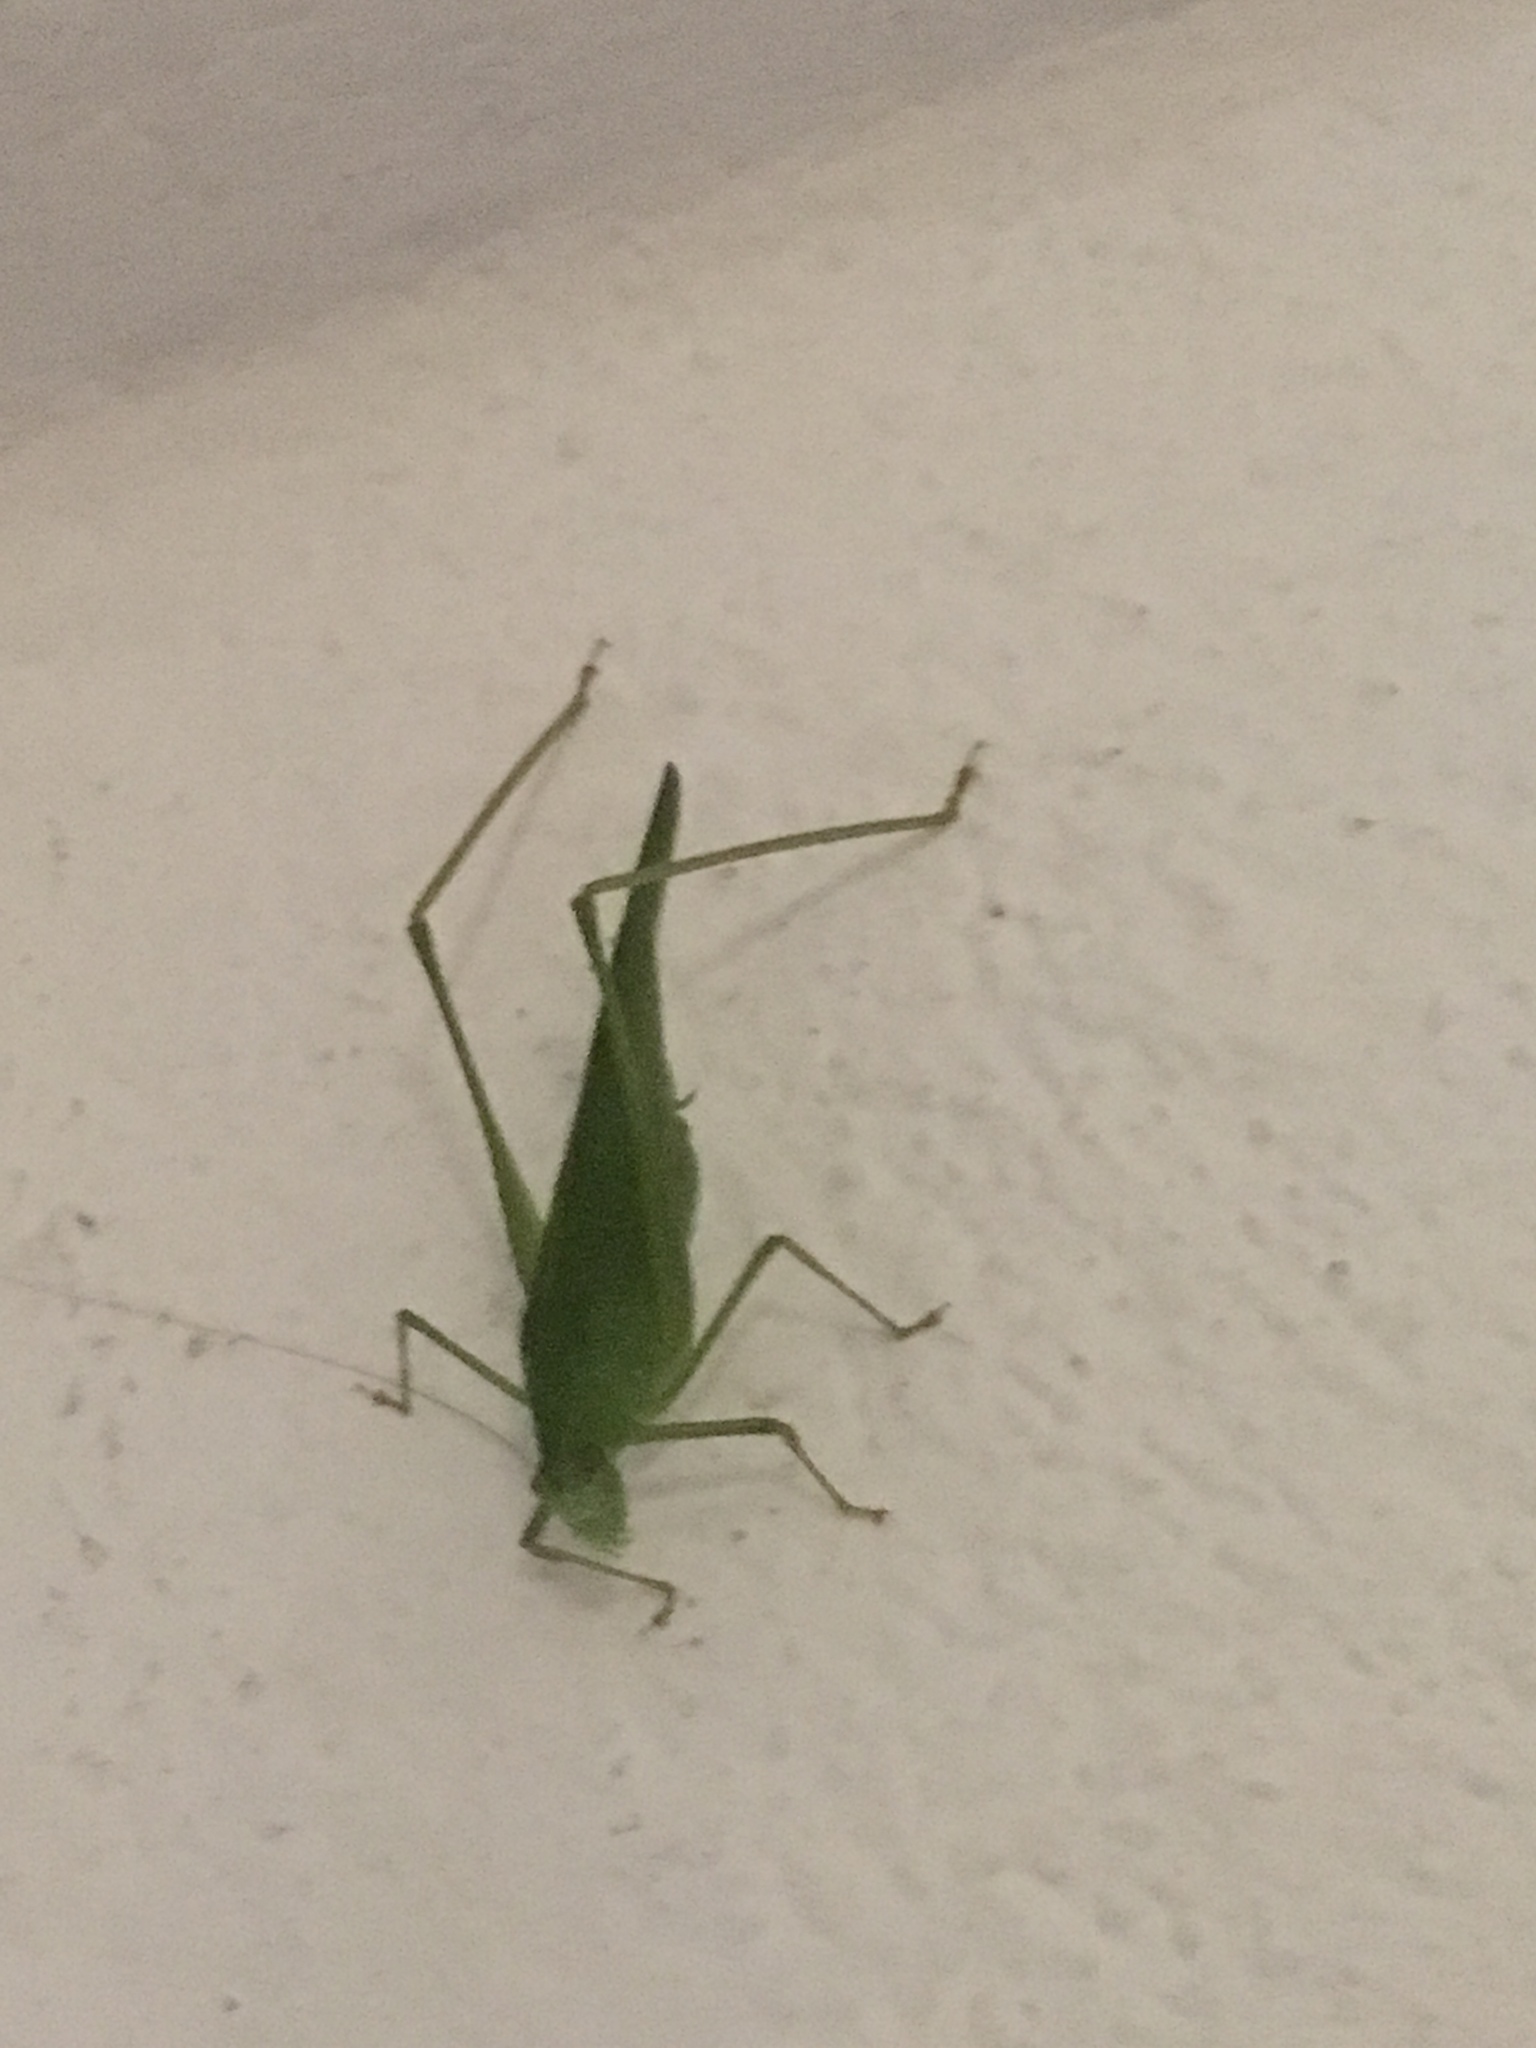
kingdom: Animalia
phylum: Arthropoda
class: Insecta
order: Orthoptera
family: Tettigoniidae
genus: Phaneroptera
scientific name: Phaneroptera nana
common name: Southern sickle bush-cricket
